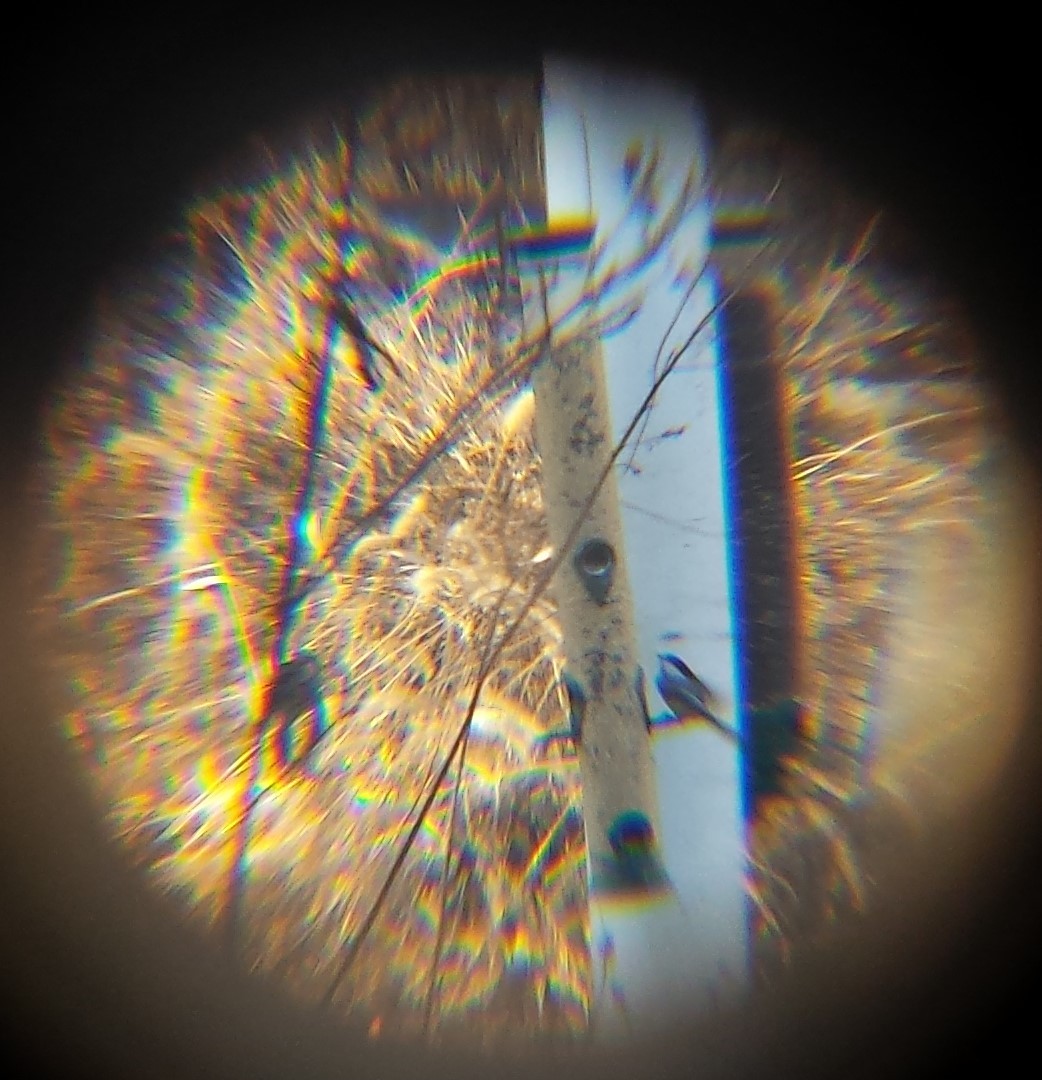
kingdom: Animalia
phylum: Chordata
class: Aves
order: Passeriformes
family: Paridae
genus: Poecile
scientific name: Poecile
